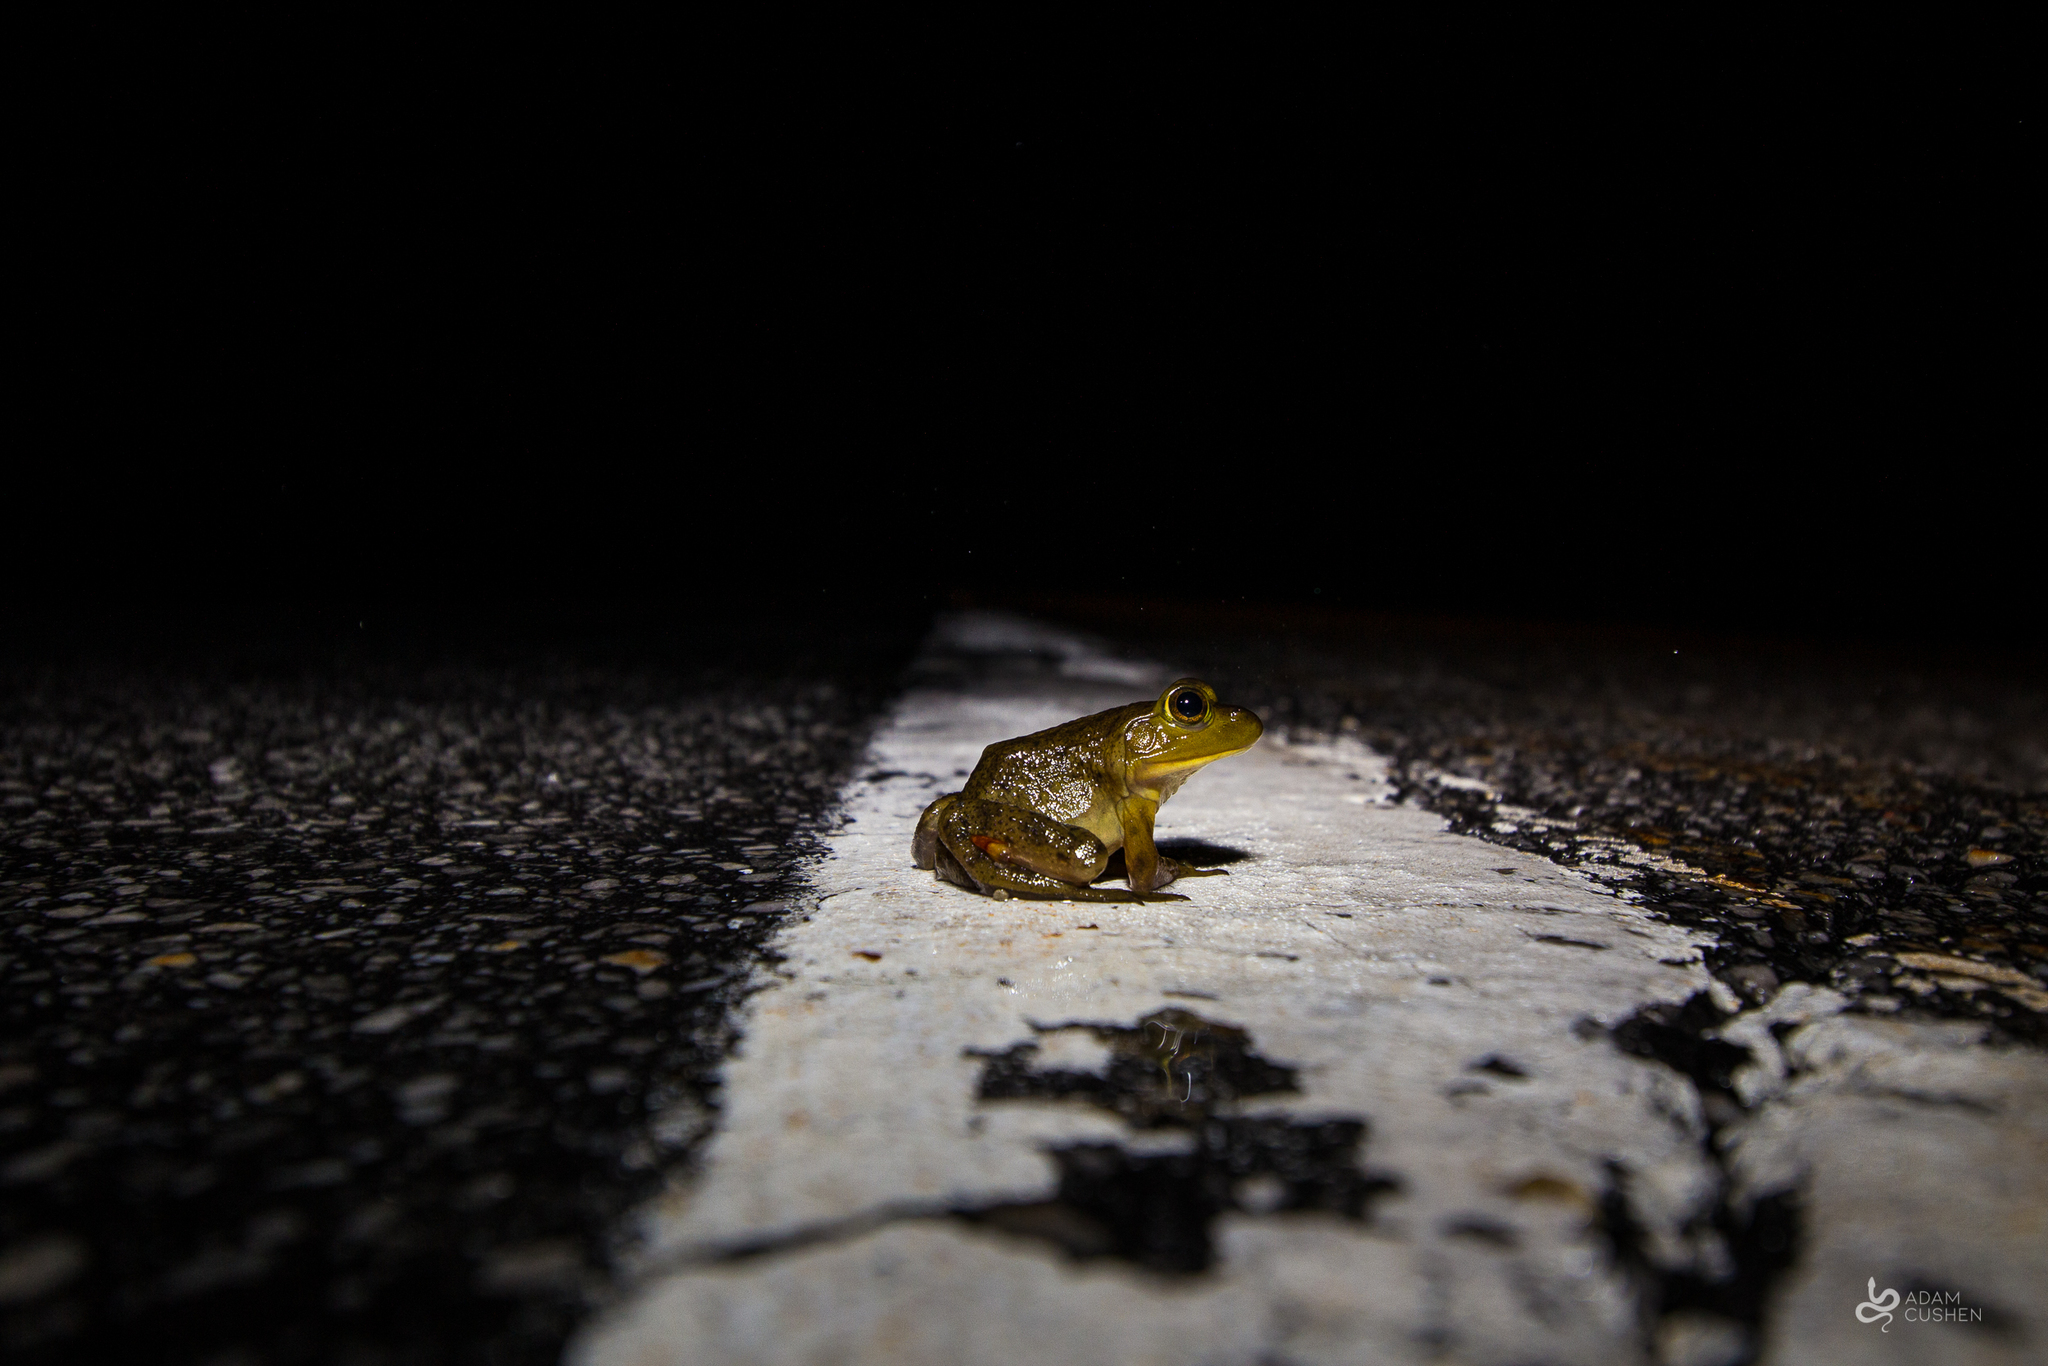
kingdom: Animalia
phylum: Chordata
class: Amphibia
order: Anura
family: Ranidae
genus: Lithobates
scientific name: Lithobates catesbeianus
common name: American bullfrog
